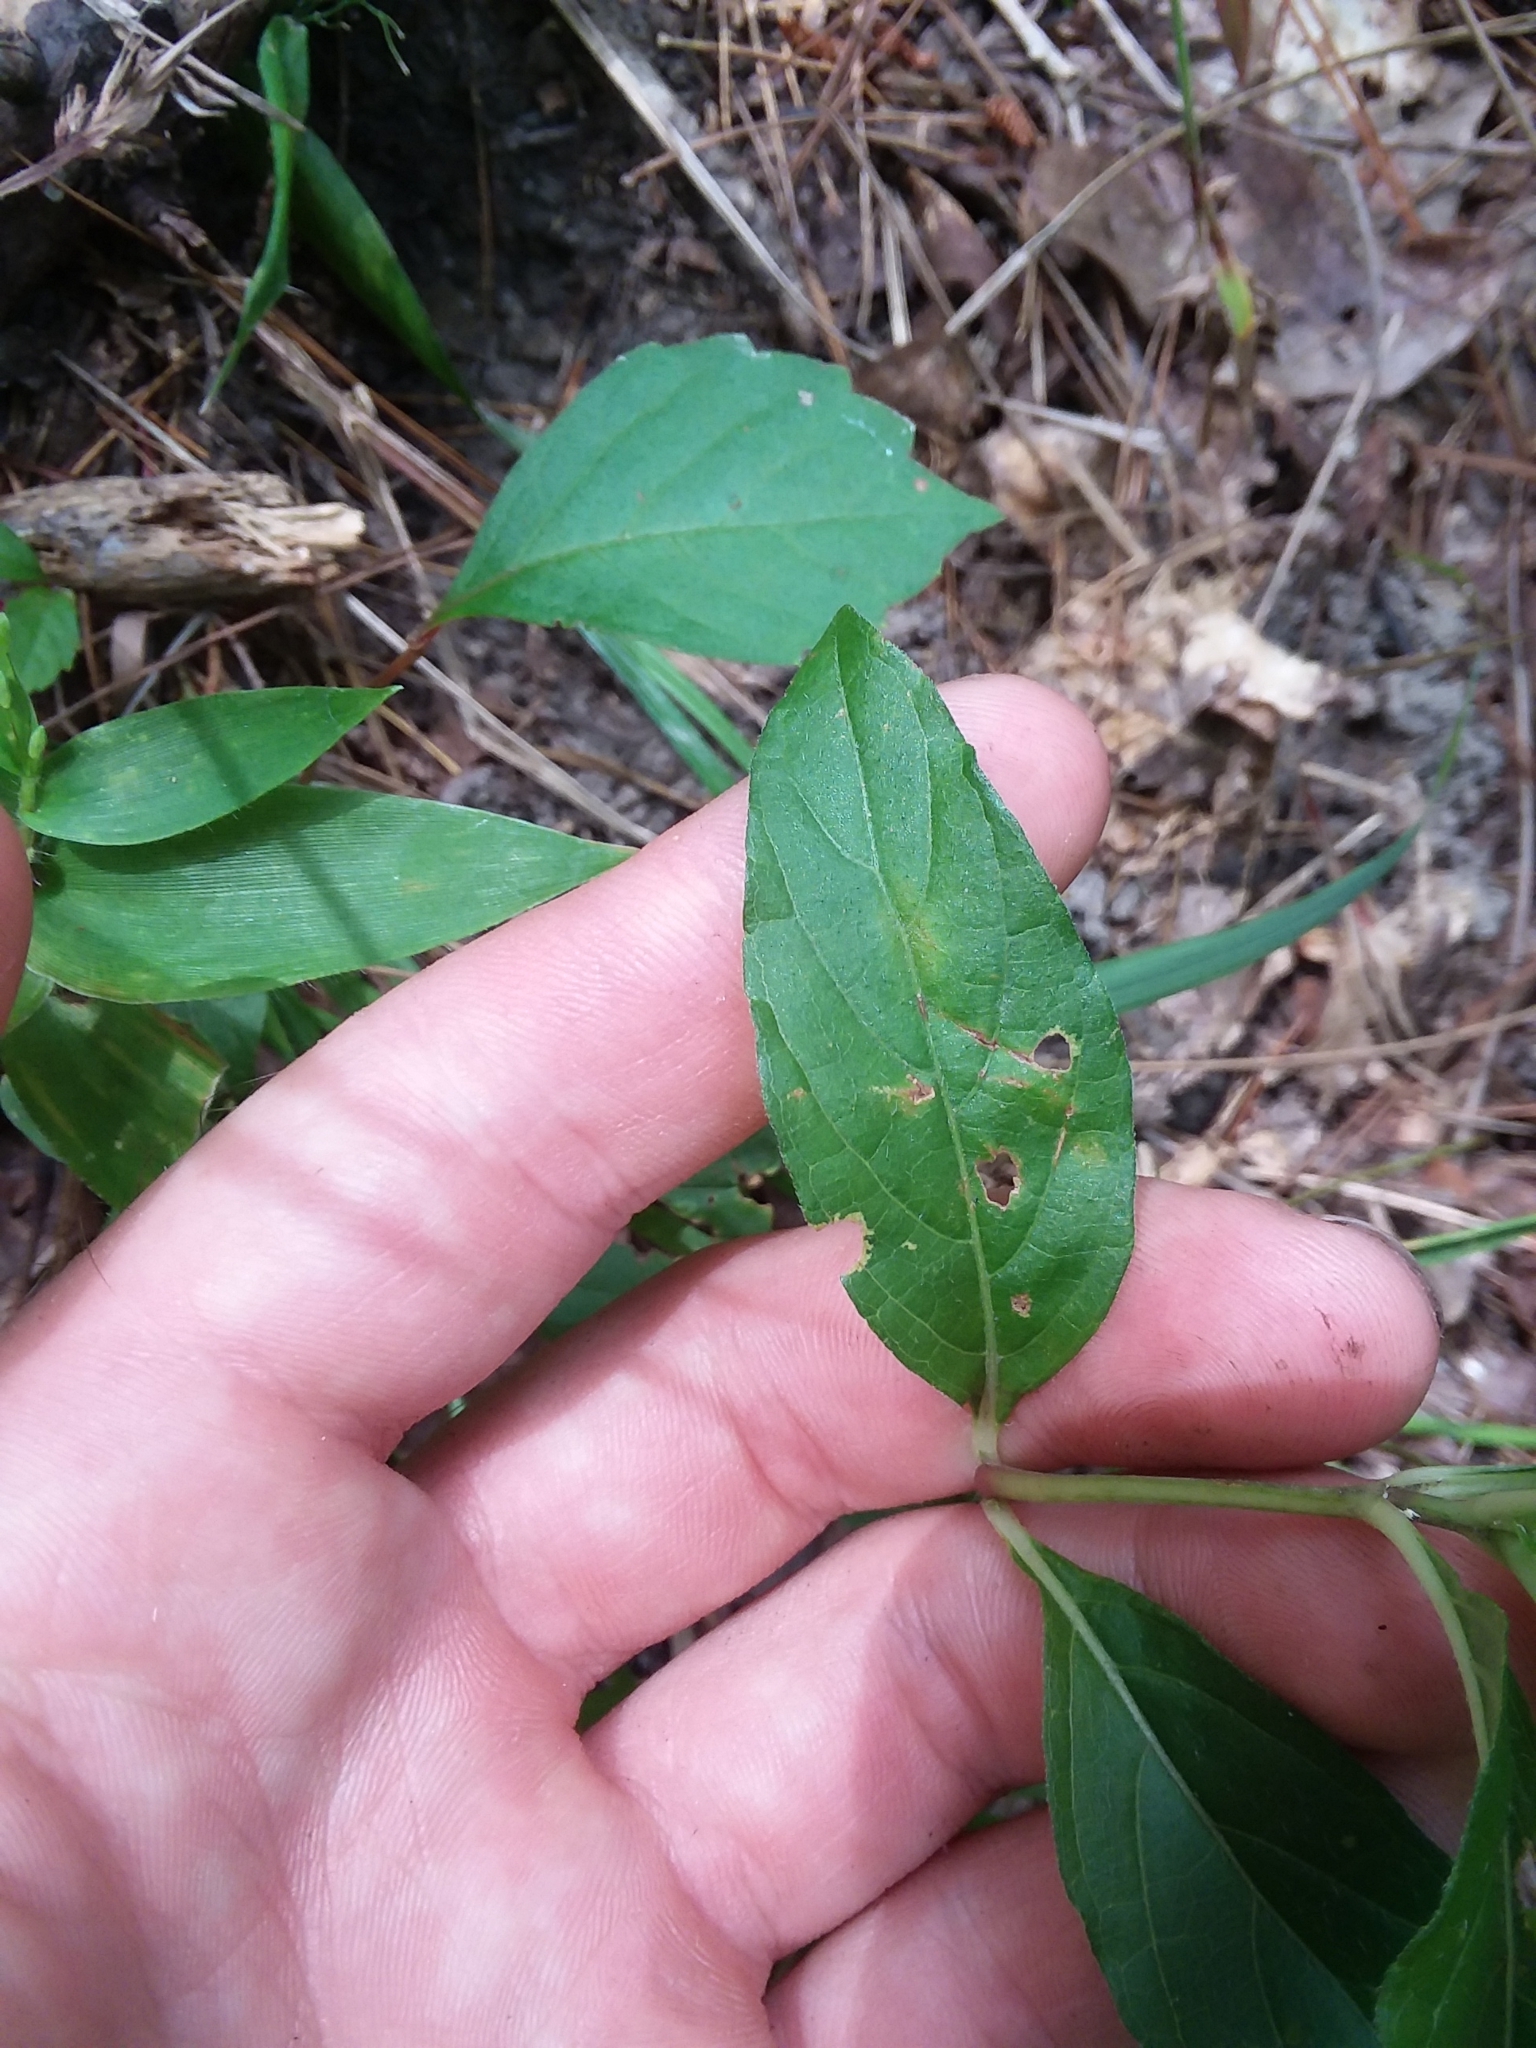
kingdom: Plantae
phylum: Tracheophyta
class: Magnoliopsida
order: Lamiales
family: Acanthaceae
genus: Ruellia
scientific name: Ruellia caroliniensis
